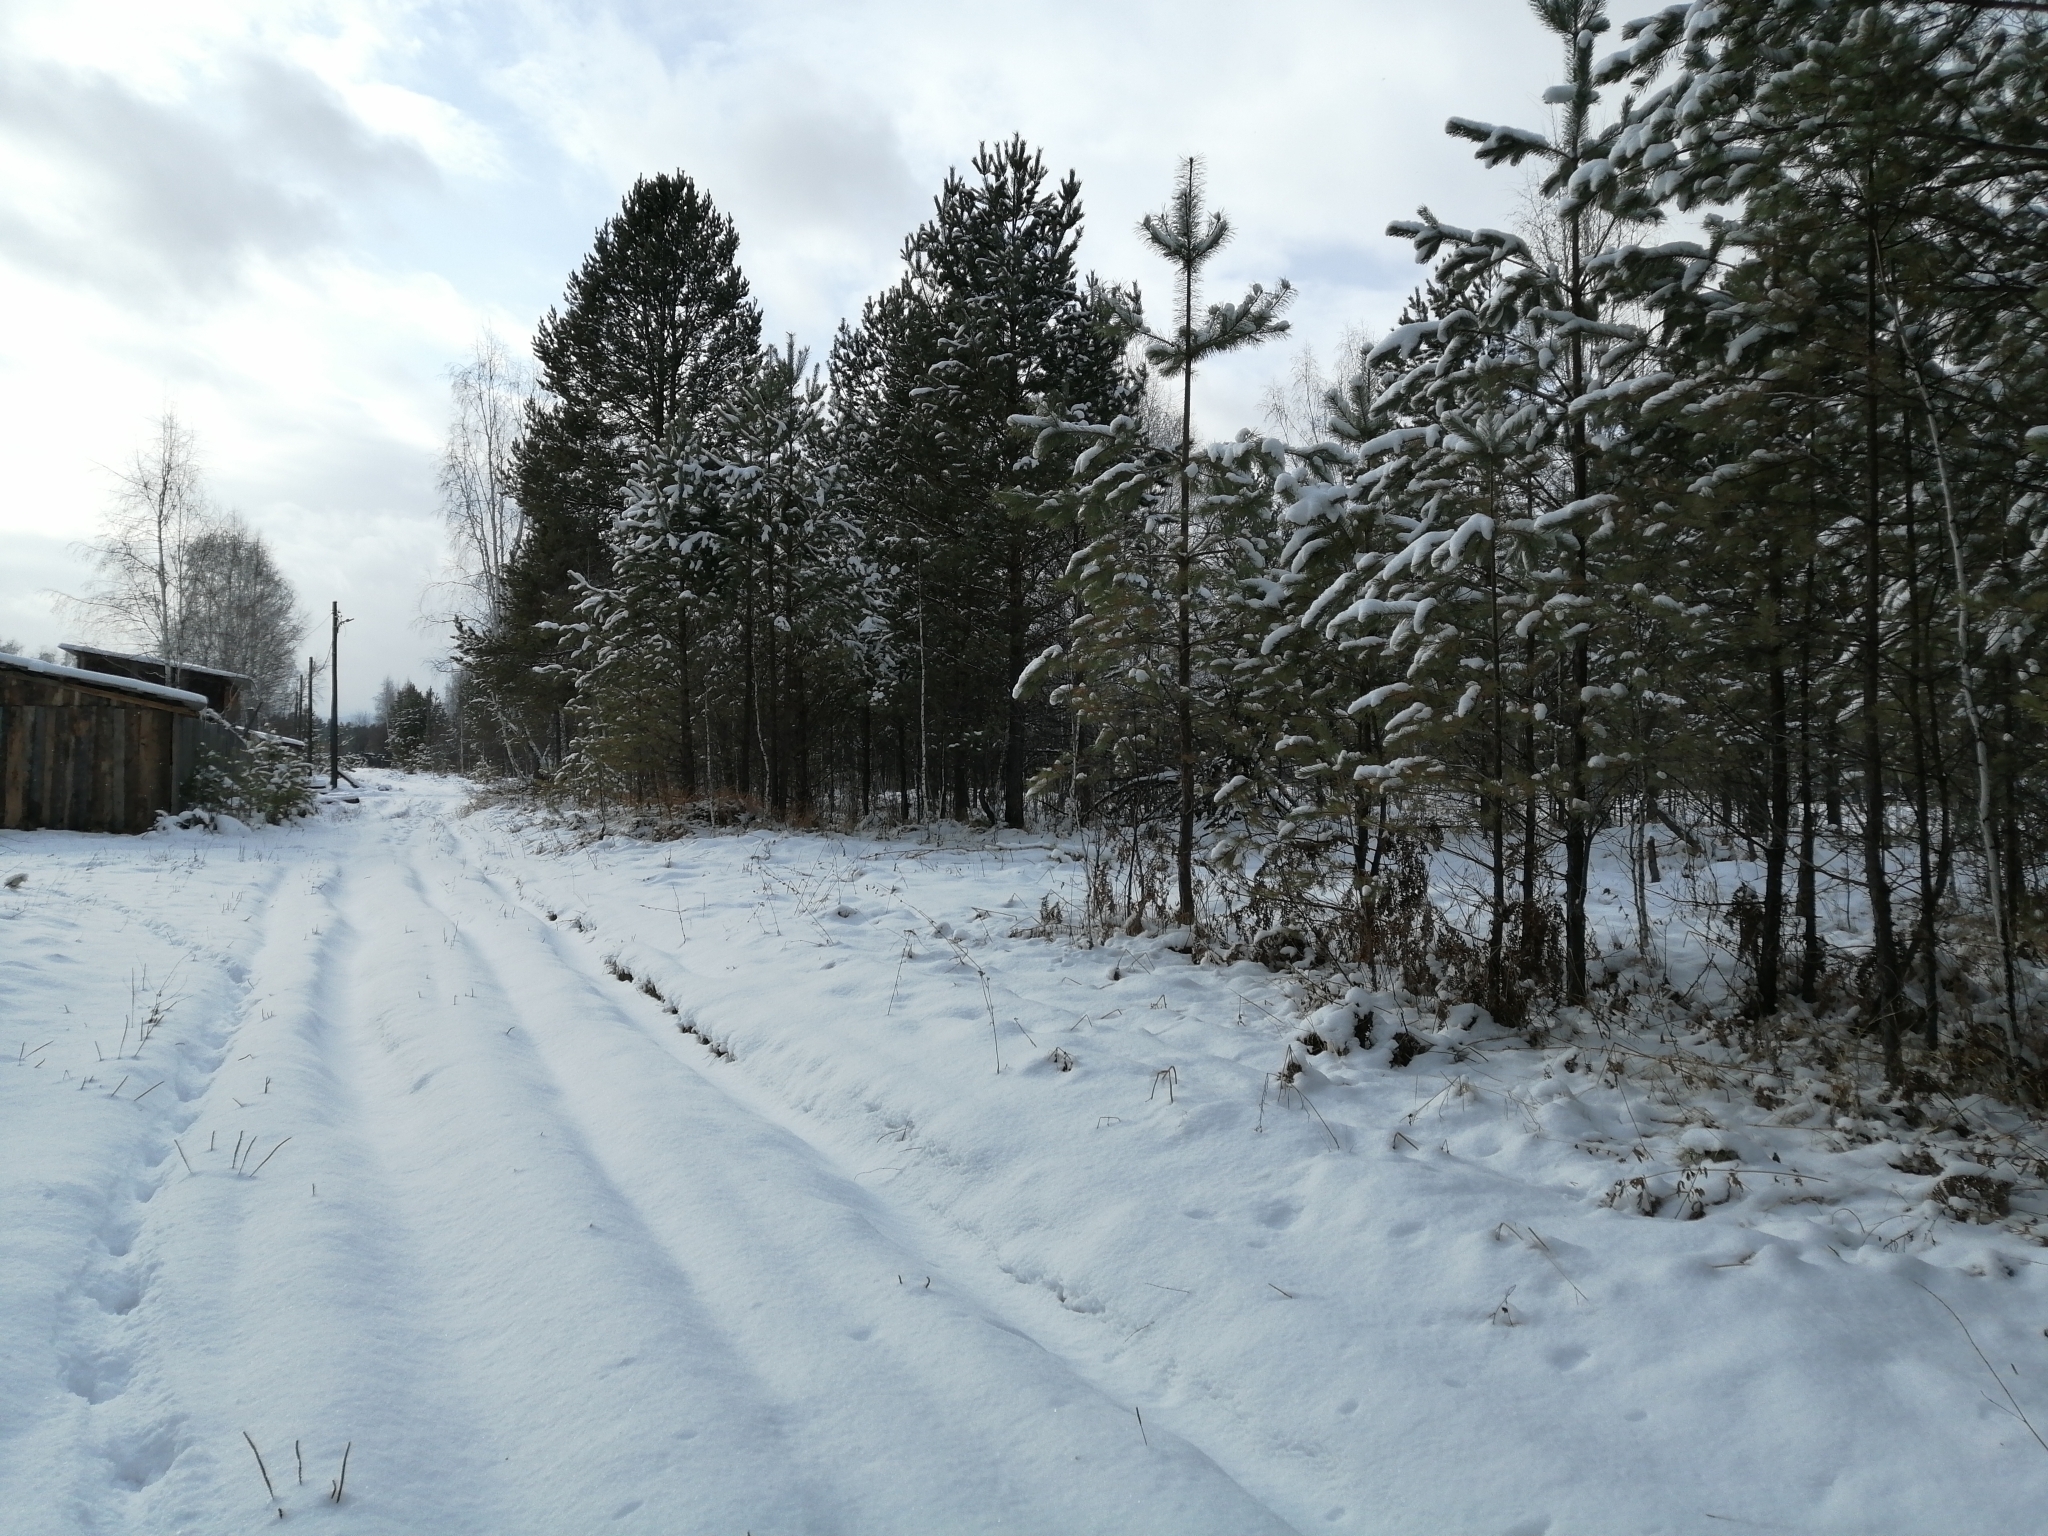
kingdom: Plantae
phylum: Tracheophyta
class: Pinopsida
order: Pinales
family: Pinaceae
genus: Pinus
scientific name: Pinus sylvestris
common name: Scots pine
